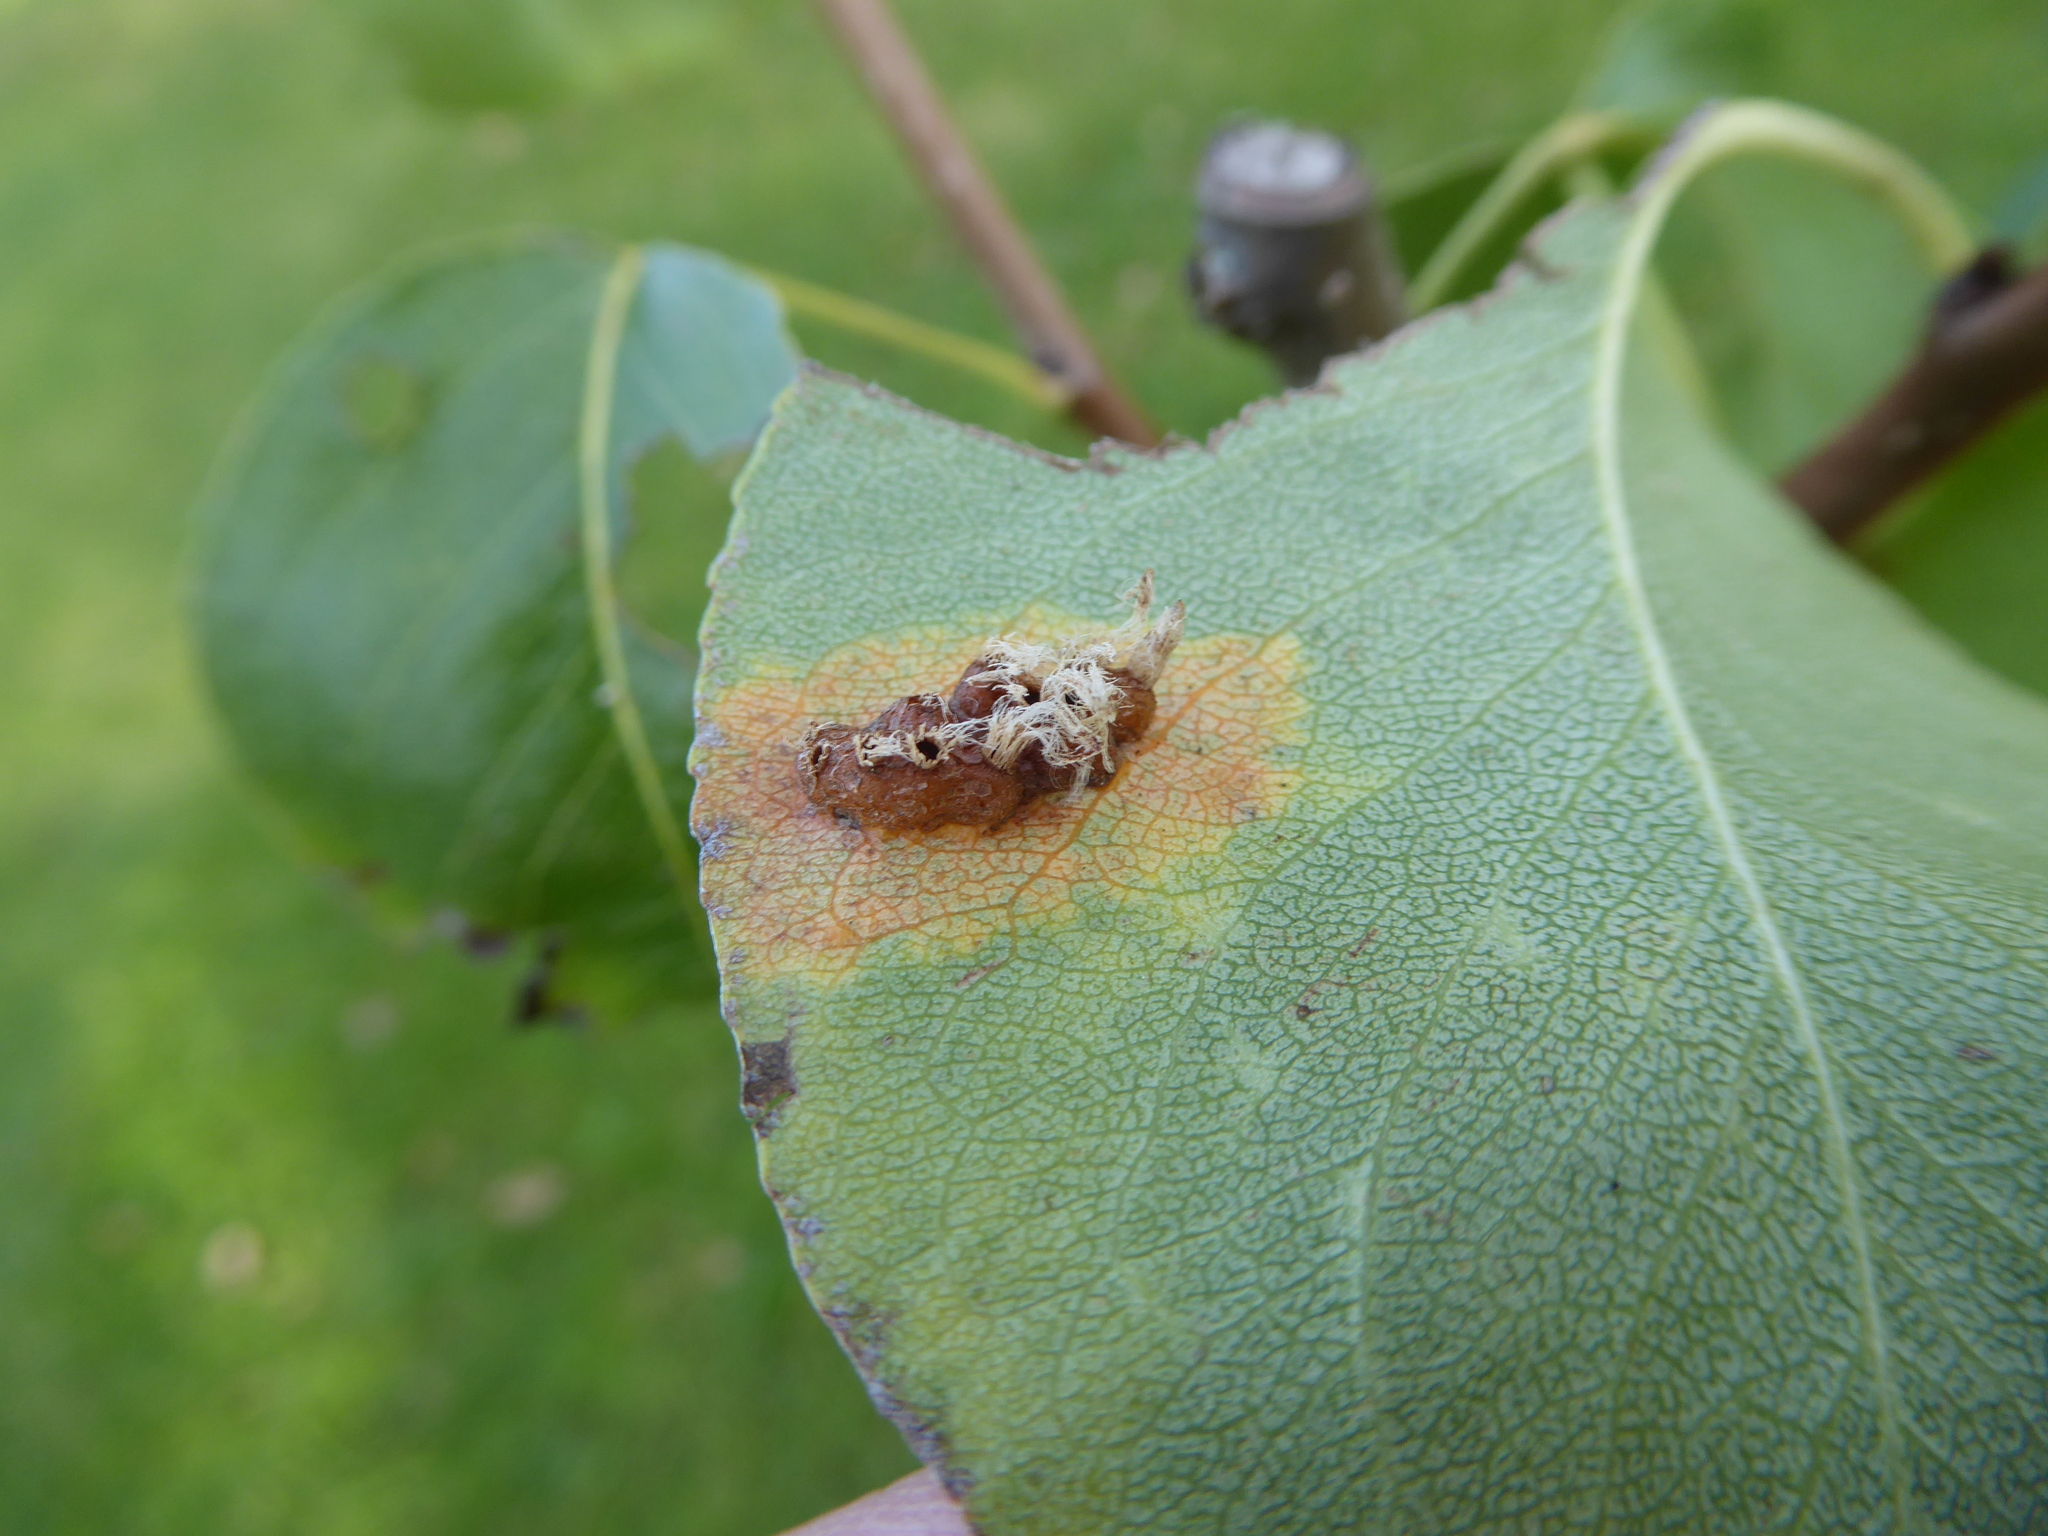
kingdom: Fungi
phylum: Basidiomycota
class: Pucciniomycetes
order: Pucciniales
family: Gymnosporangiaceae
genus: Gymnosporangium
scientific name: Gymnosporangium sabinae
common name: Pear trellis rust fungus
